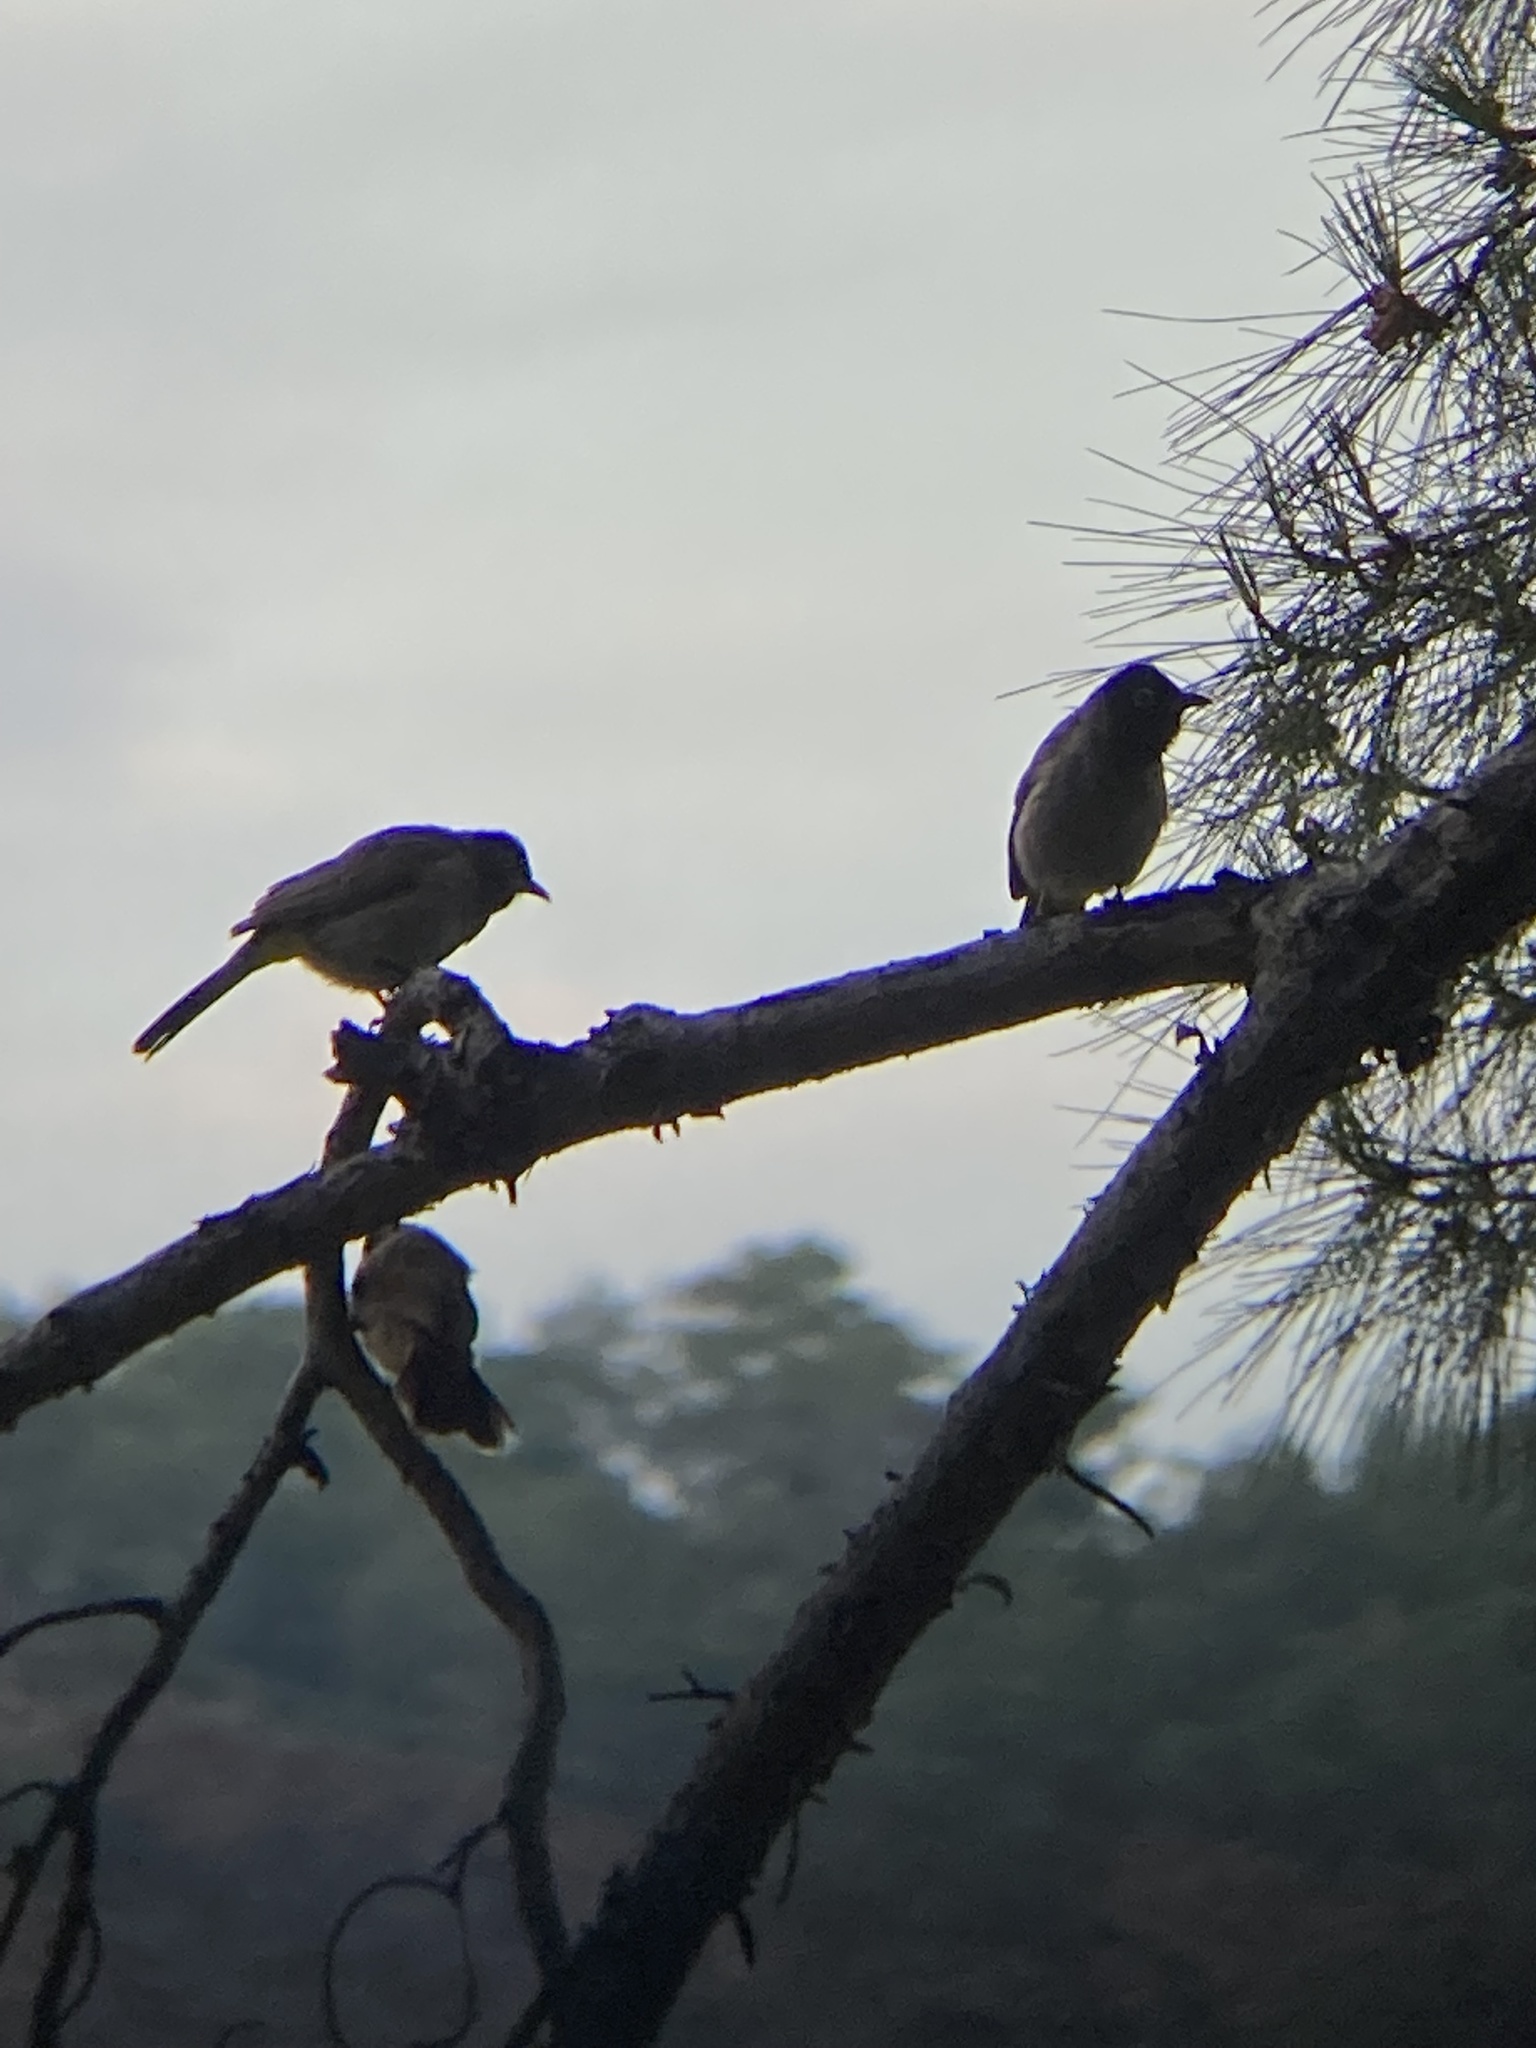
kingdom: Animalia
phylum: Chordata
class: Aves
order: Passeriformes
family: Pycnonotidae
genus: Pycnonotus
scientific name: Pycnonotus xanthopygos
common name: White-spectacled bulbul
